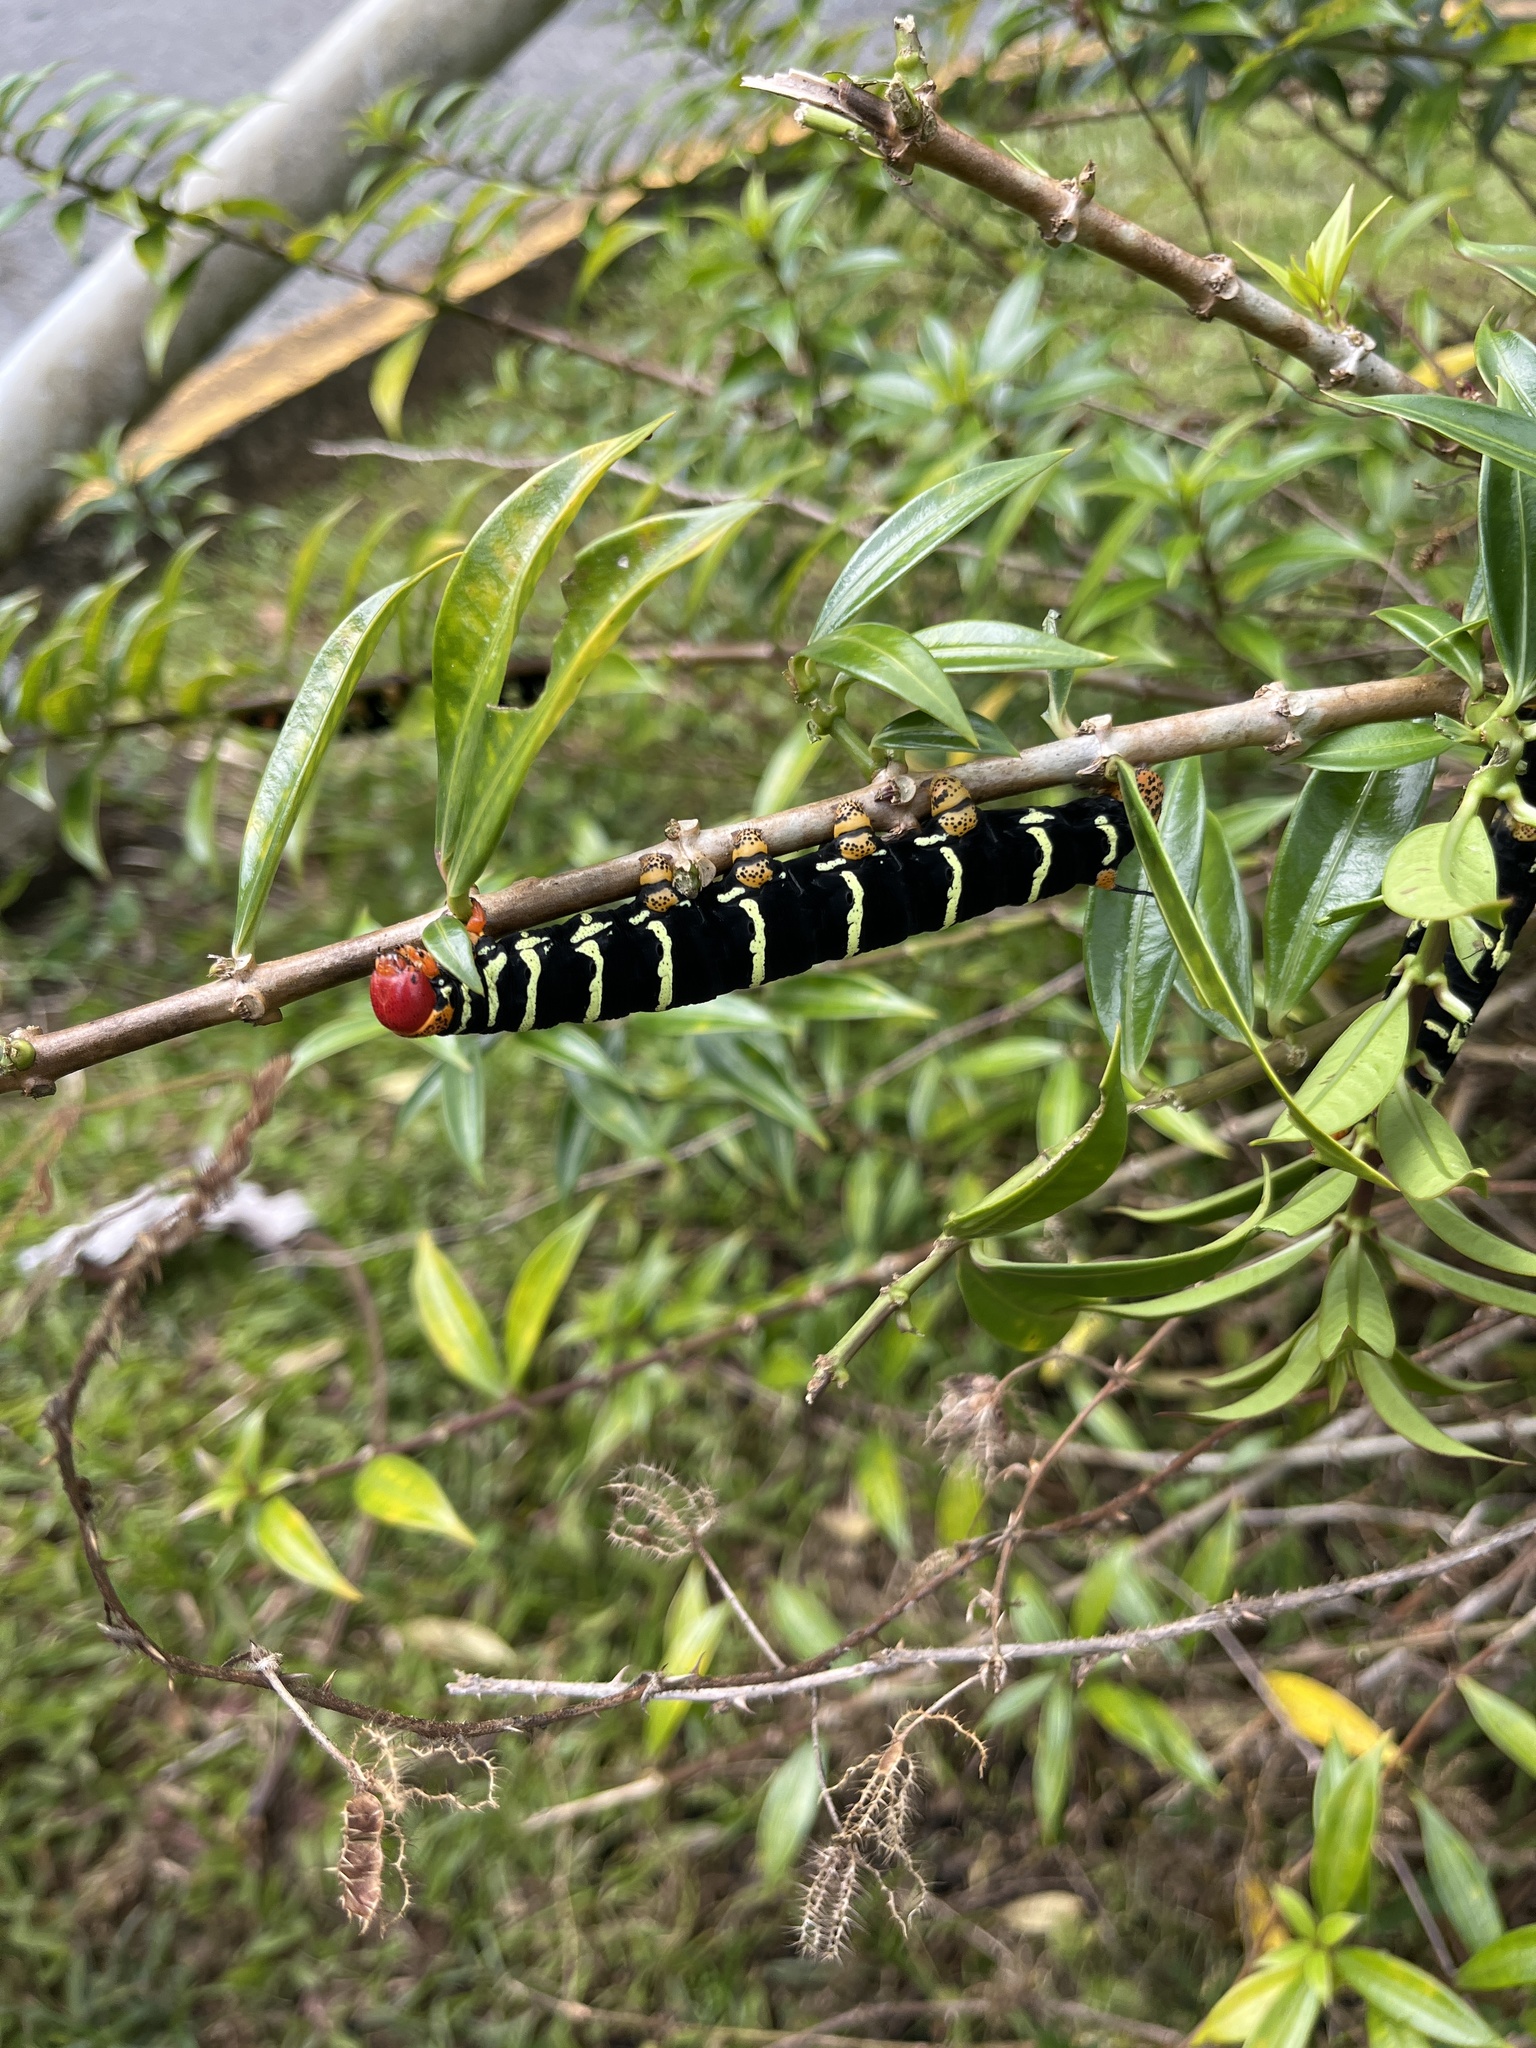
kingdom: Animalia
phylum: Arthropoda
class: Insecta
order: Lepidoptera
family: Sphingidae
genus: Pseudosphinx
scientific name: Pseudosphinx tetrio
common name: Tetrio sphinx
